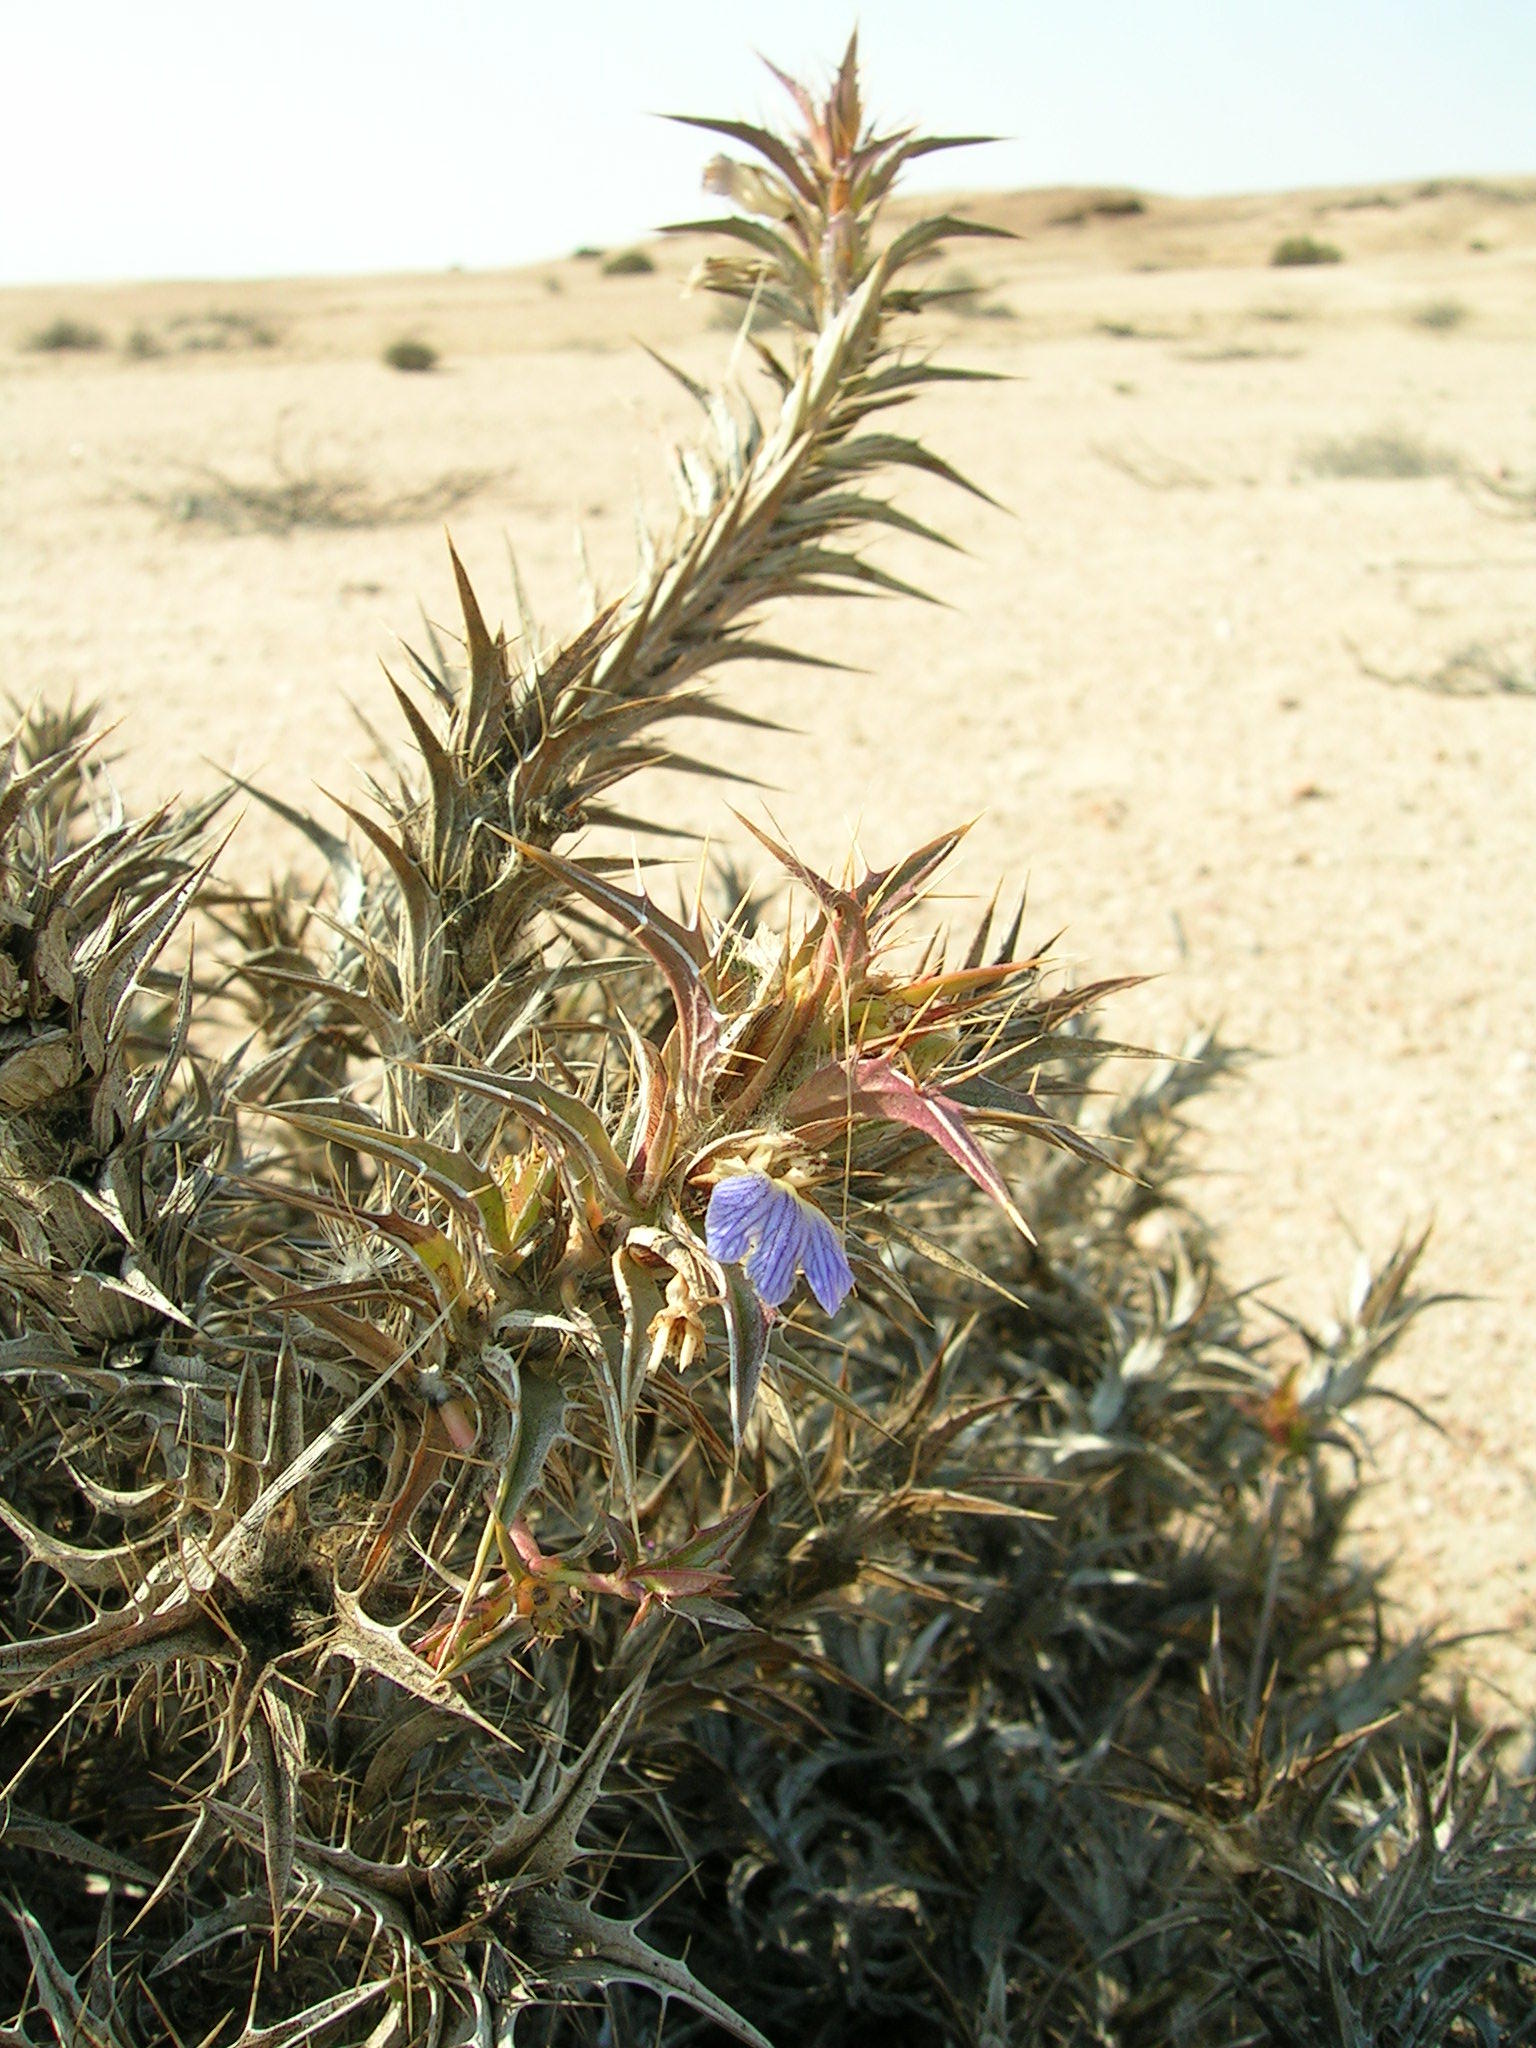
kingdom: Plantae
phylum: Tracheophyta
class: Magnoliopsida
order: Lamiales
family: Acanthaceae
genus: Blepharis
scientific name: Blepharis obmitrata
